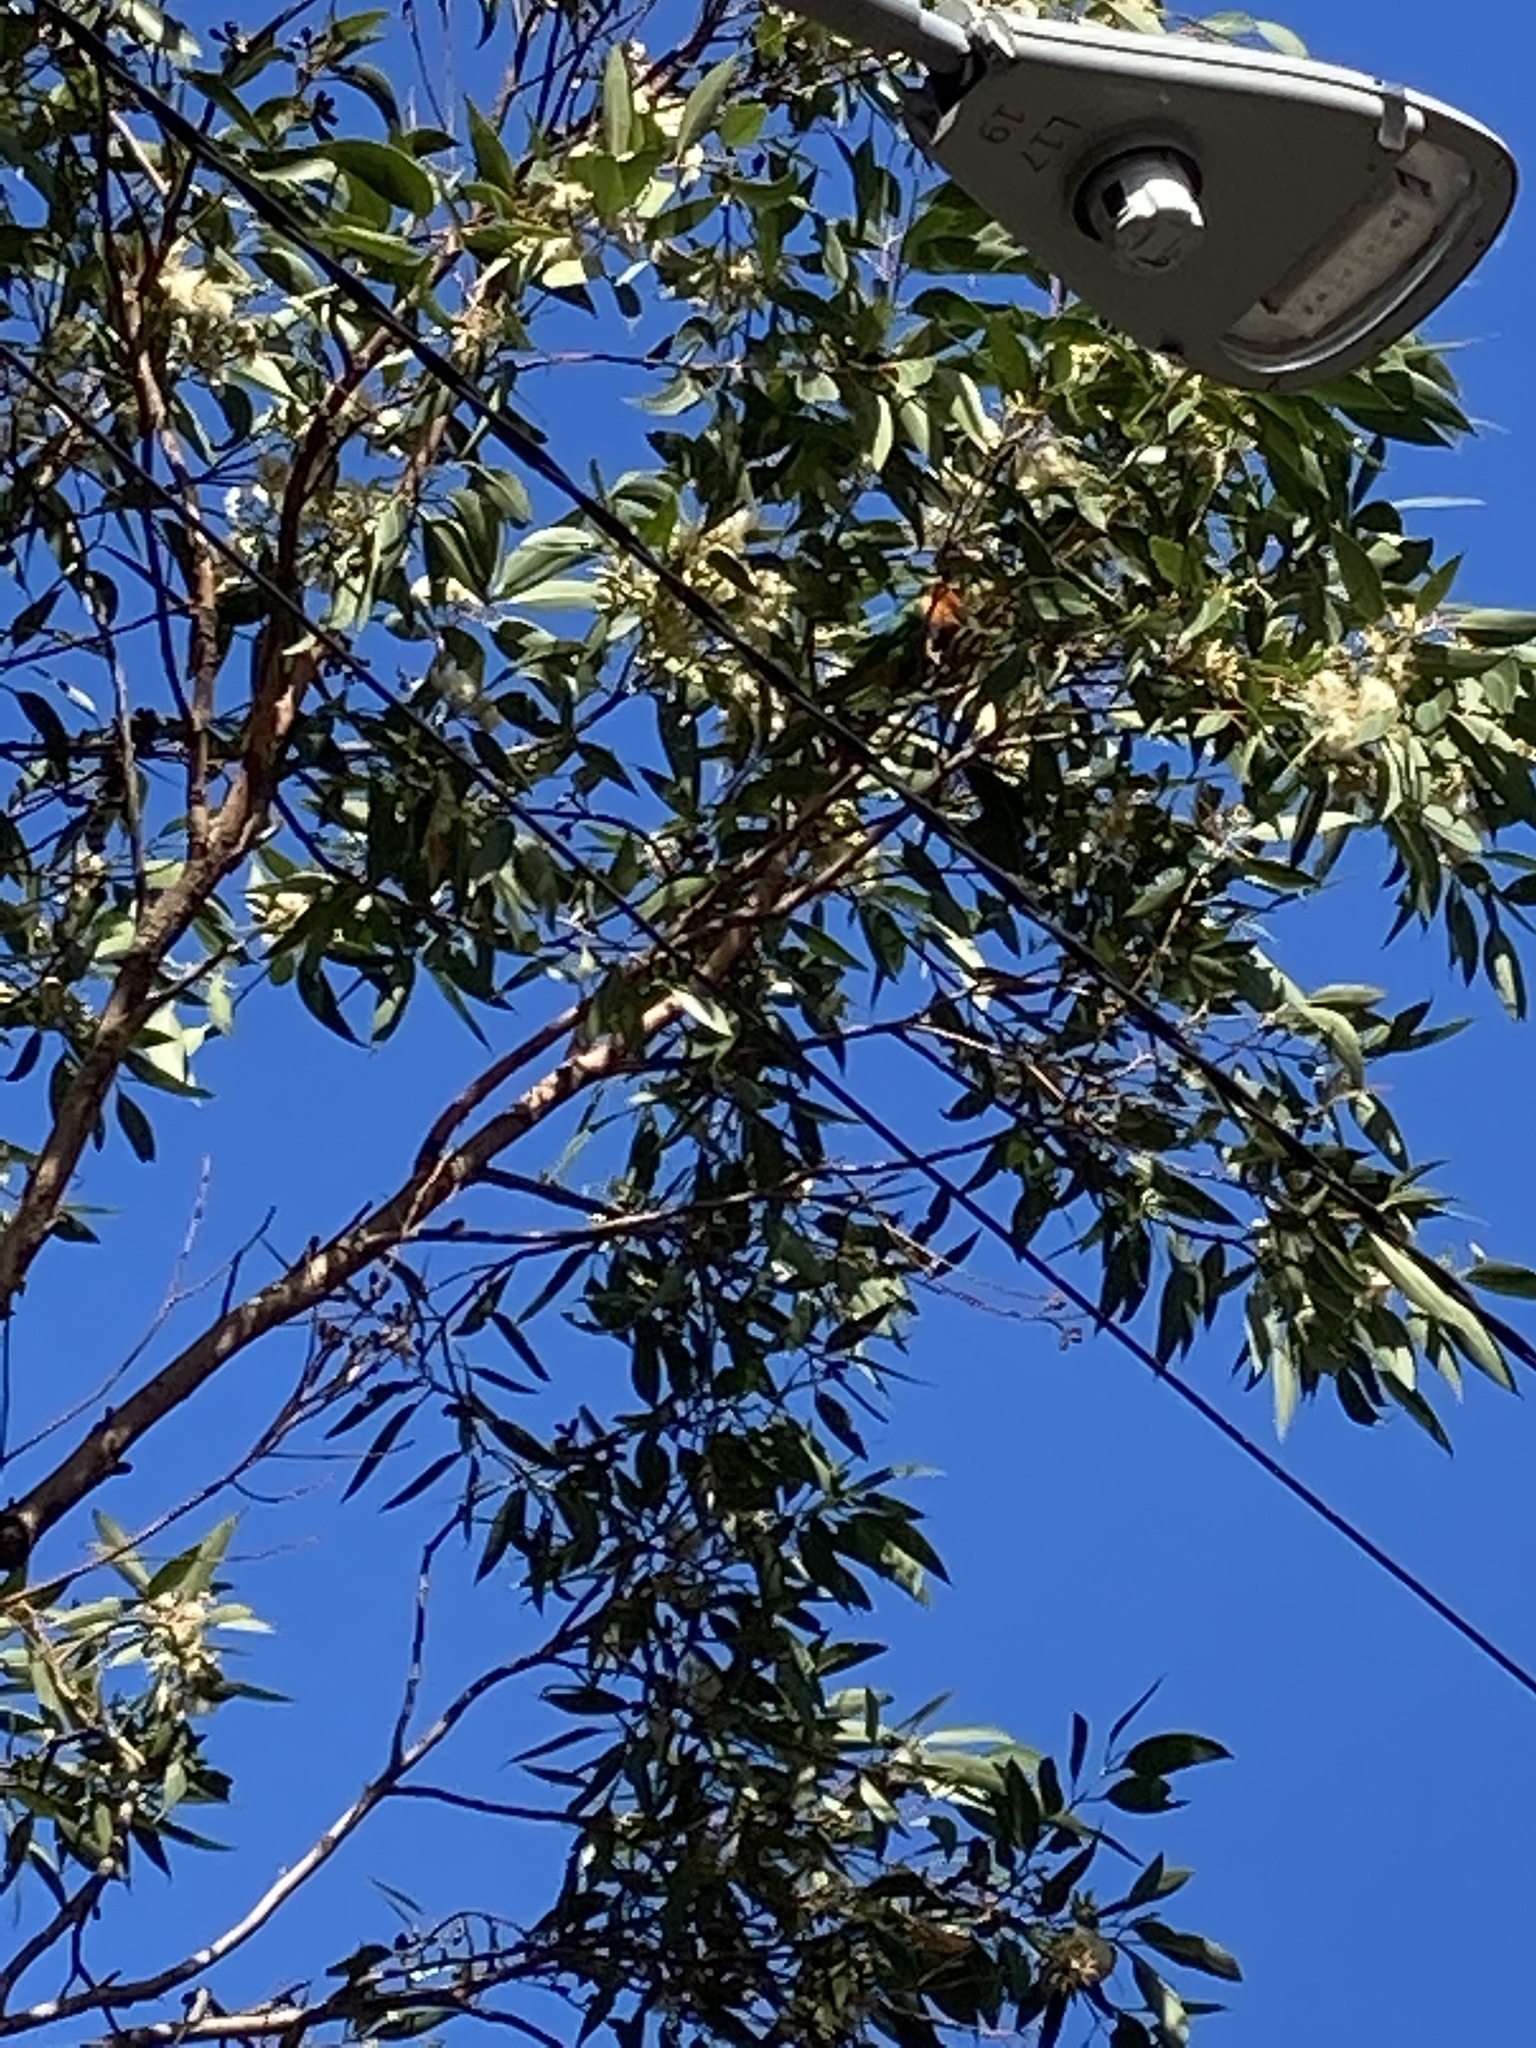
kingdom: Animalia
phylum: Chordata
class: Aves
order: Psittaciformes
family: Psittacidae
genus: Trichoglossus
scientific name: Trichoglossus haematodus
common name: Coconut lorikeet
